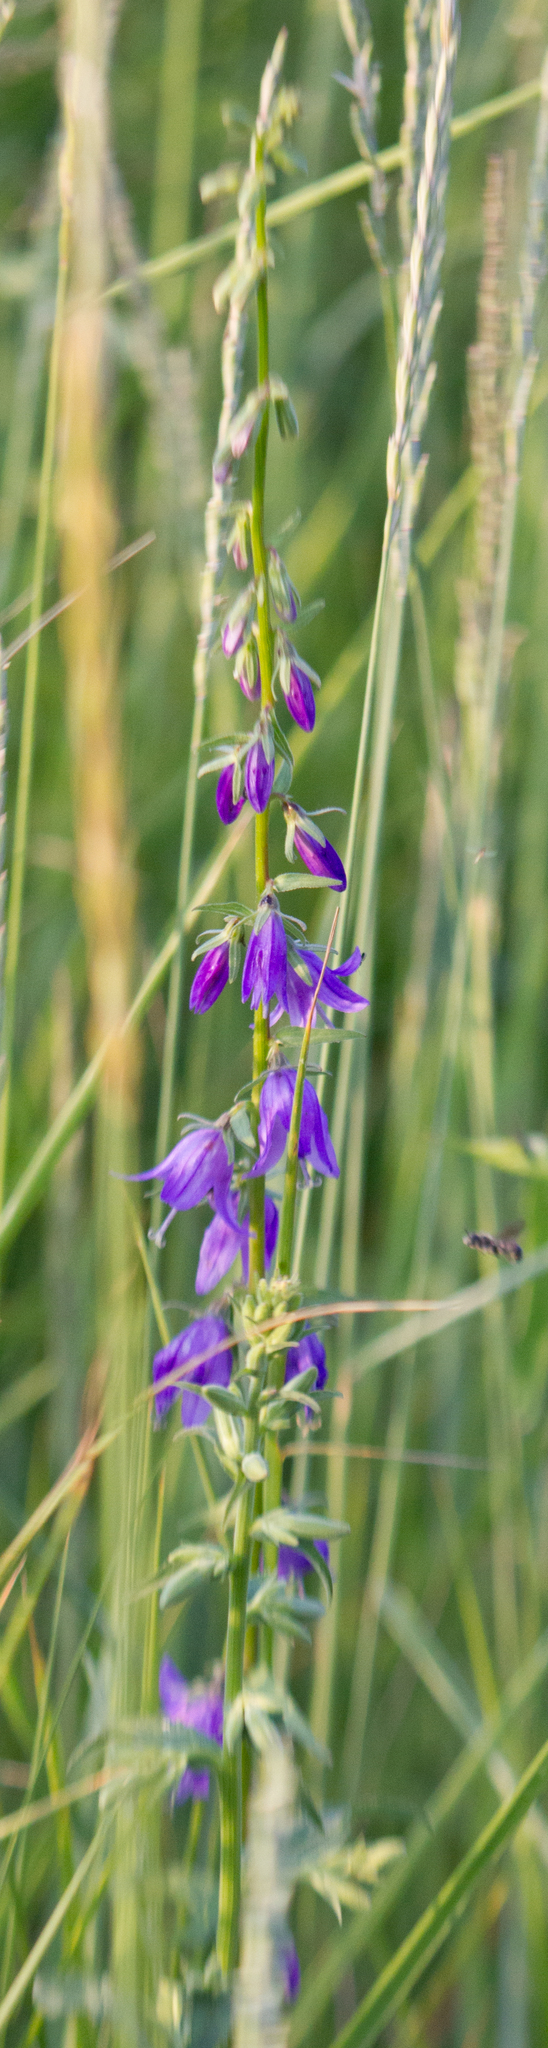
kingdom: Plantae
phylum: Tracheophyta
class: Magnoliopsida
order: Asterales
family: Campanulaceae
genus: Campanula
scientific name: Campanula rapunculoides
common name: Creeping bellflower
